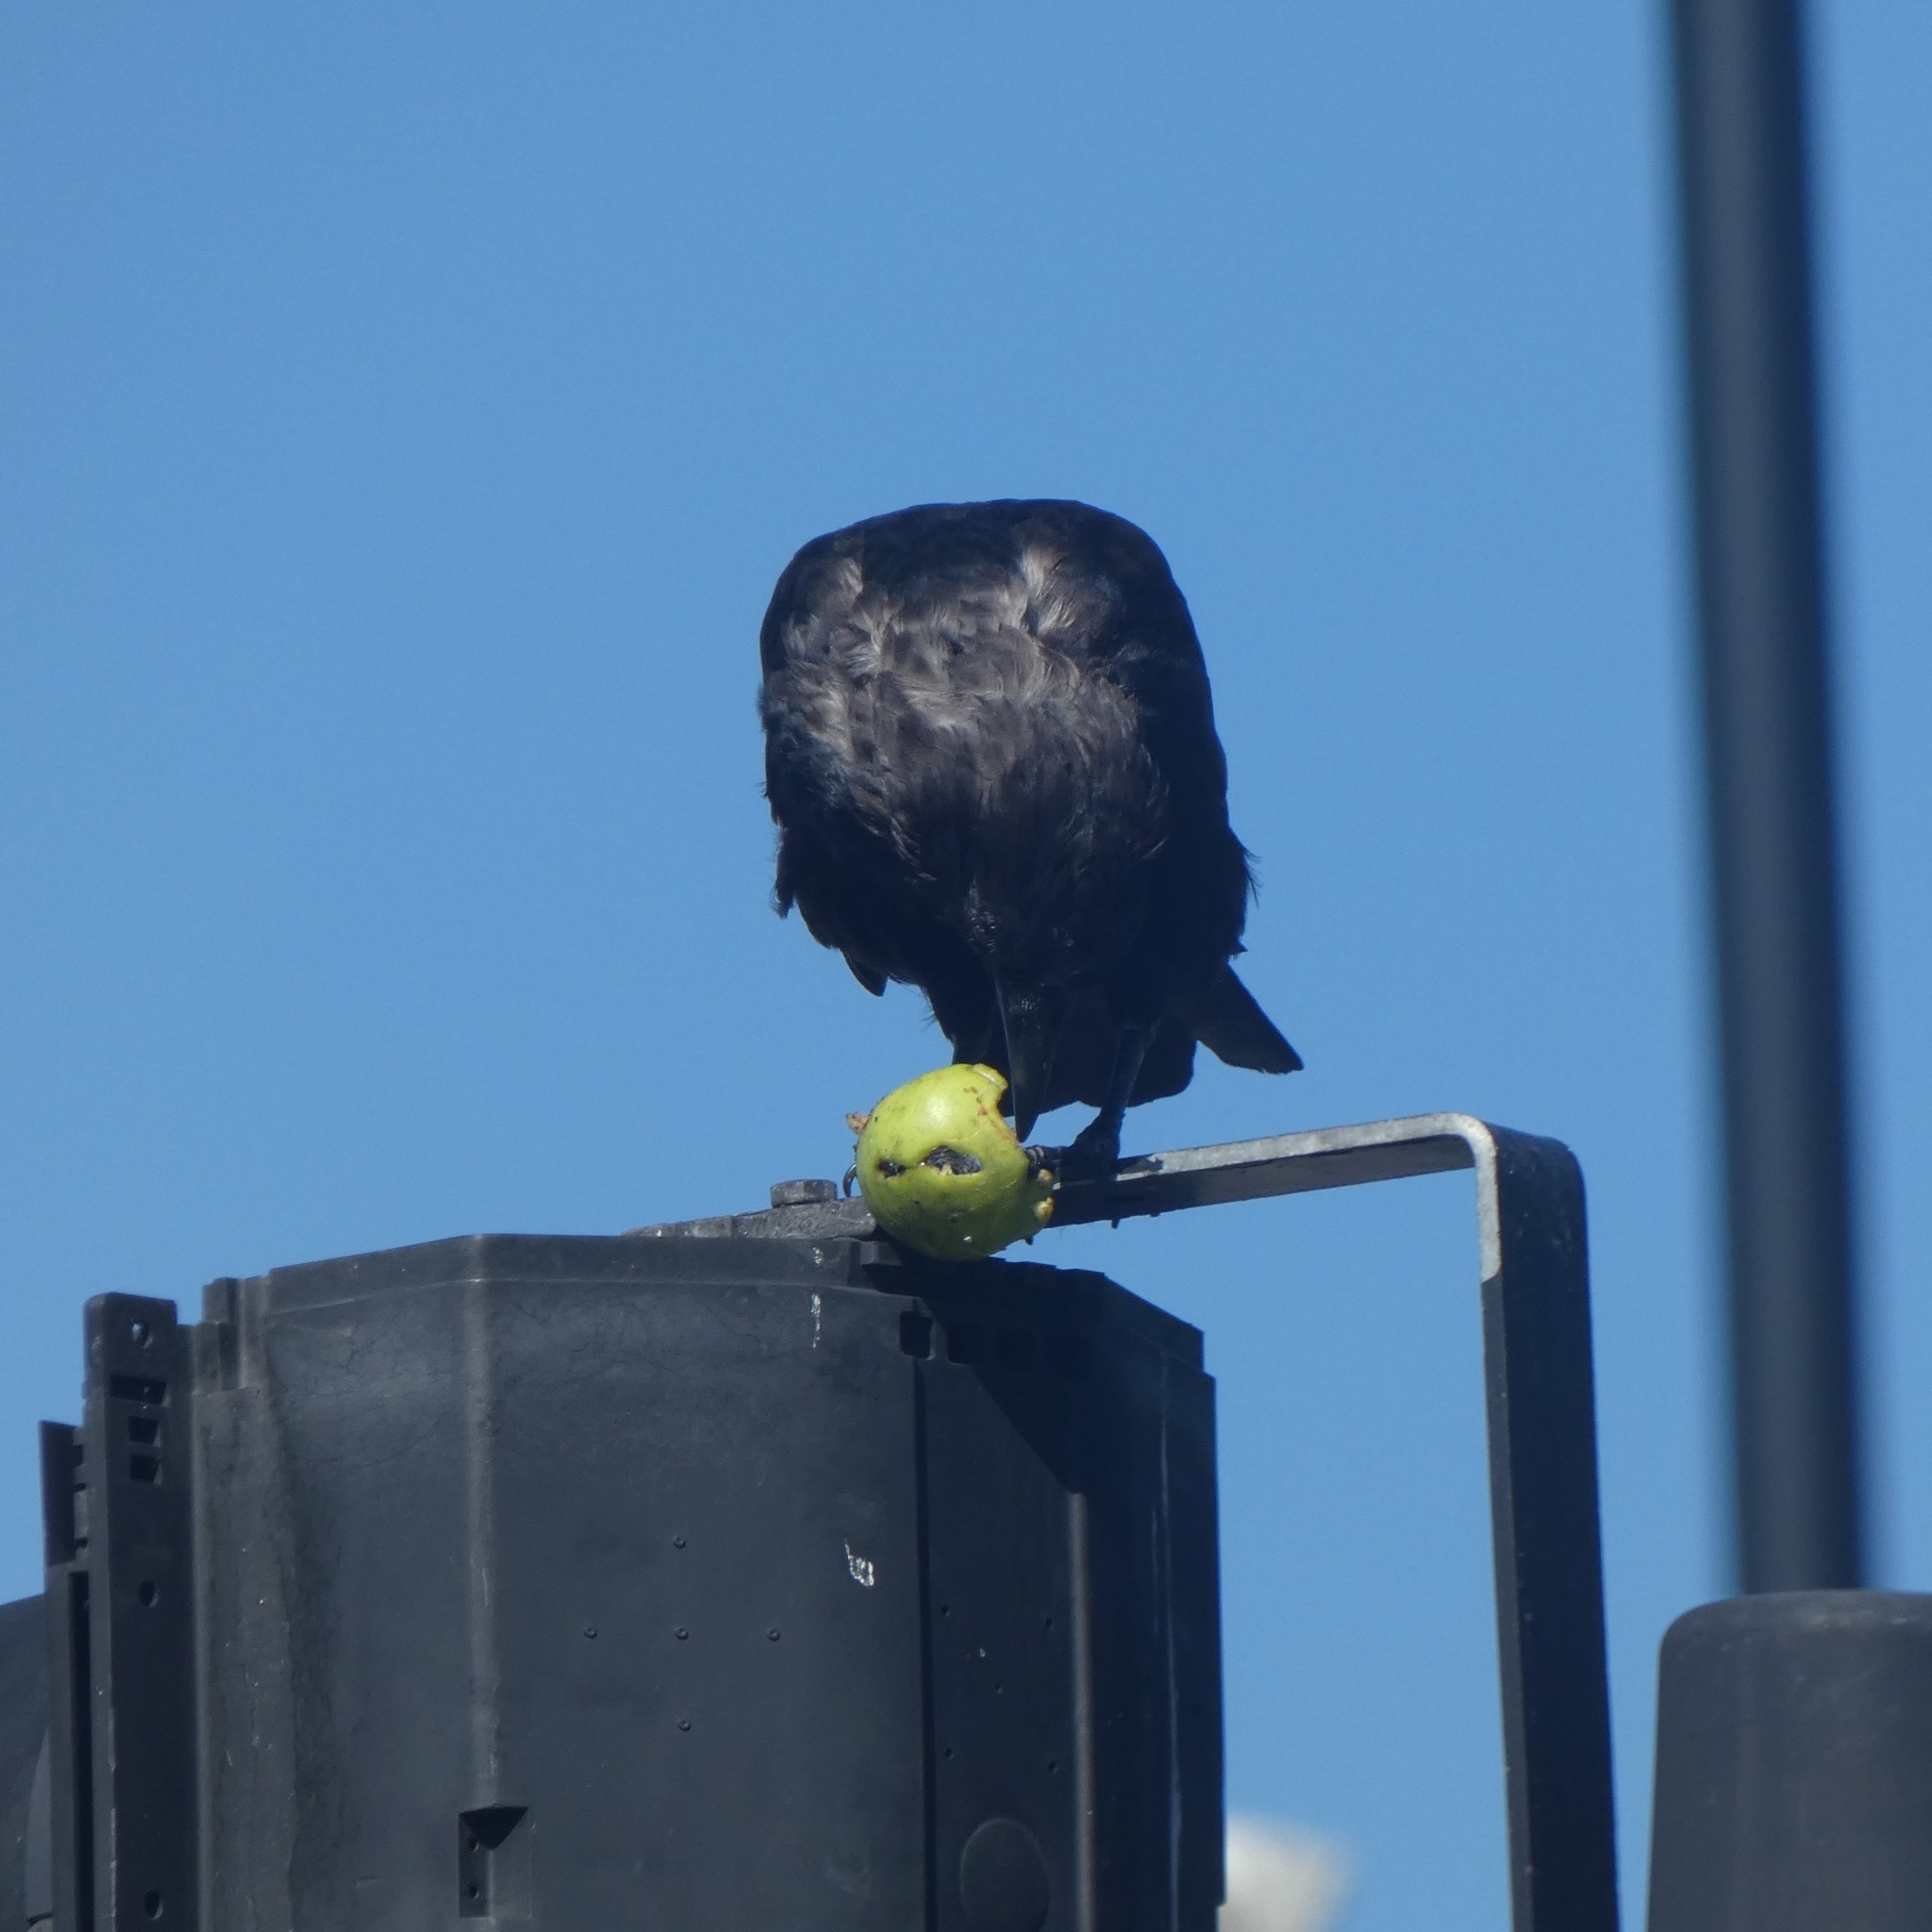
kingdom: Animalia
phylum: Chordata
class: Aves
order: Passeriformes
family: Corvidae
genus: Corvus
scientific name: Corvus corone
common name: Carrion crow
